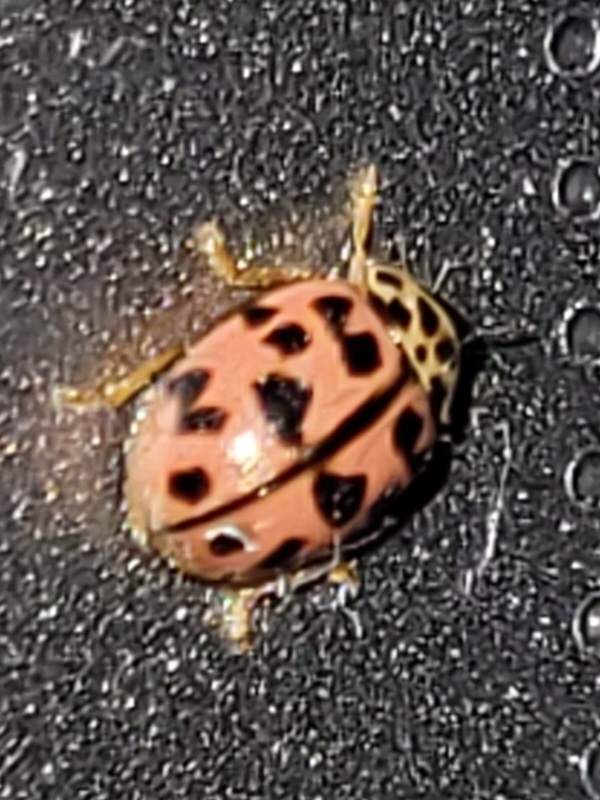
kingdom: Animalia
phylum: Arthropoda
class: Insecta
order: Coleoptera
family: Coccinellidae
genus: Oenopia
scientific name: Oenopia conglobata
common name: Ladybird beetle
